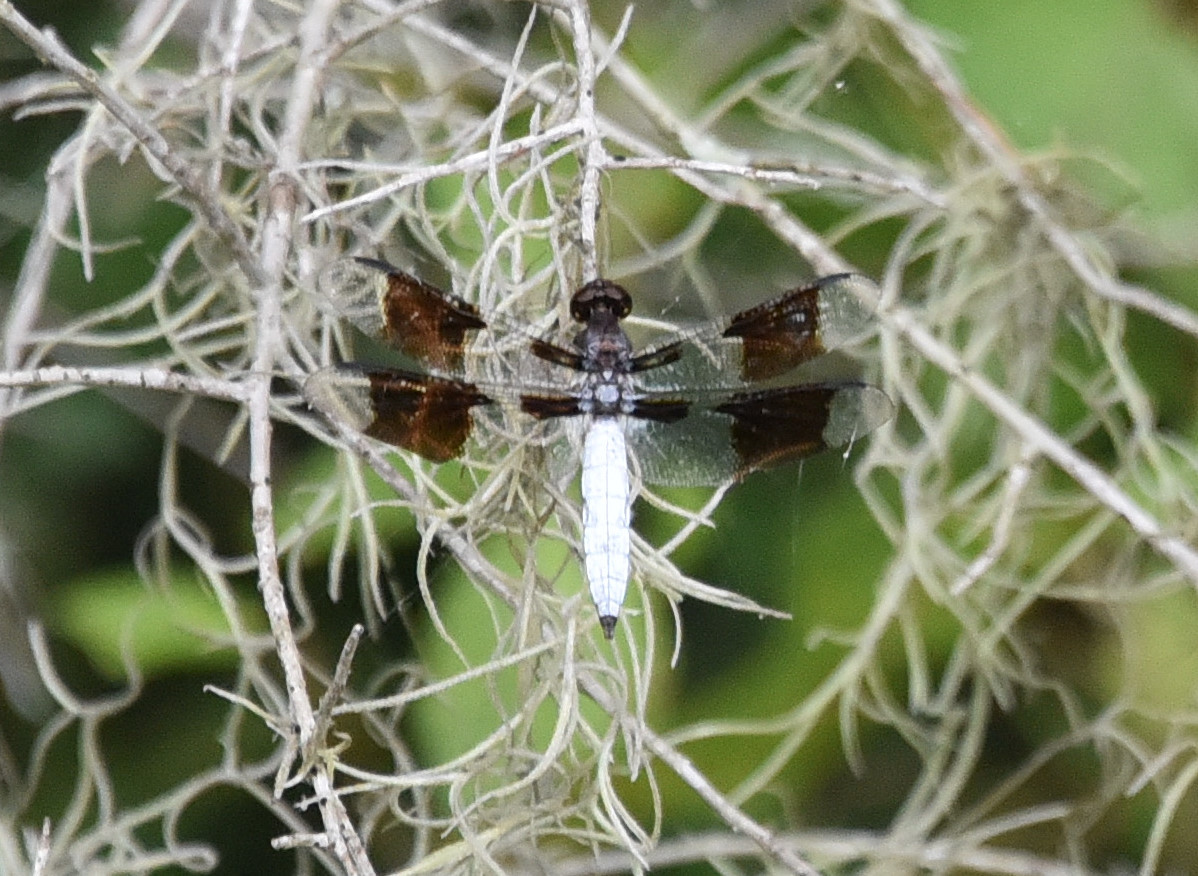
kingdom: Animalia
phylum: Arthropoda
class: Insecta
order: Odonata
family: Libellulidae
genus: Plathemis
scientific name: Plathemis lydia
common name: Common whitetail
